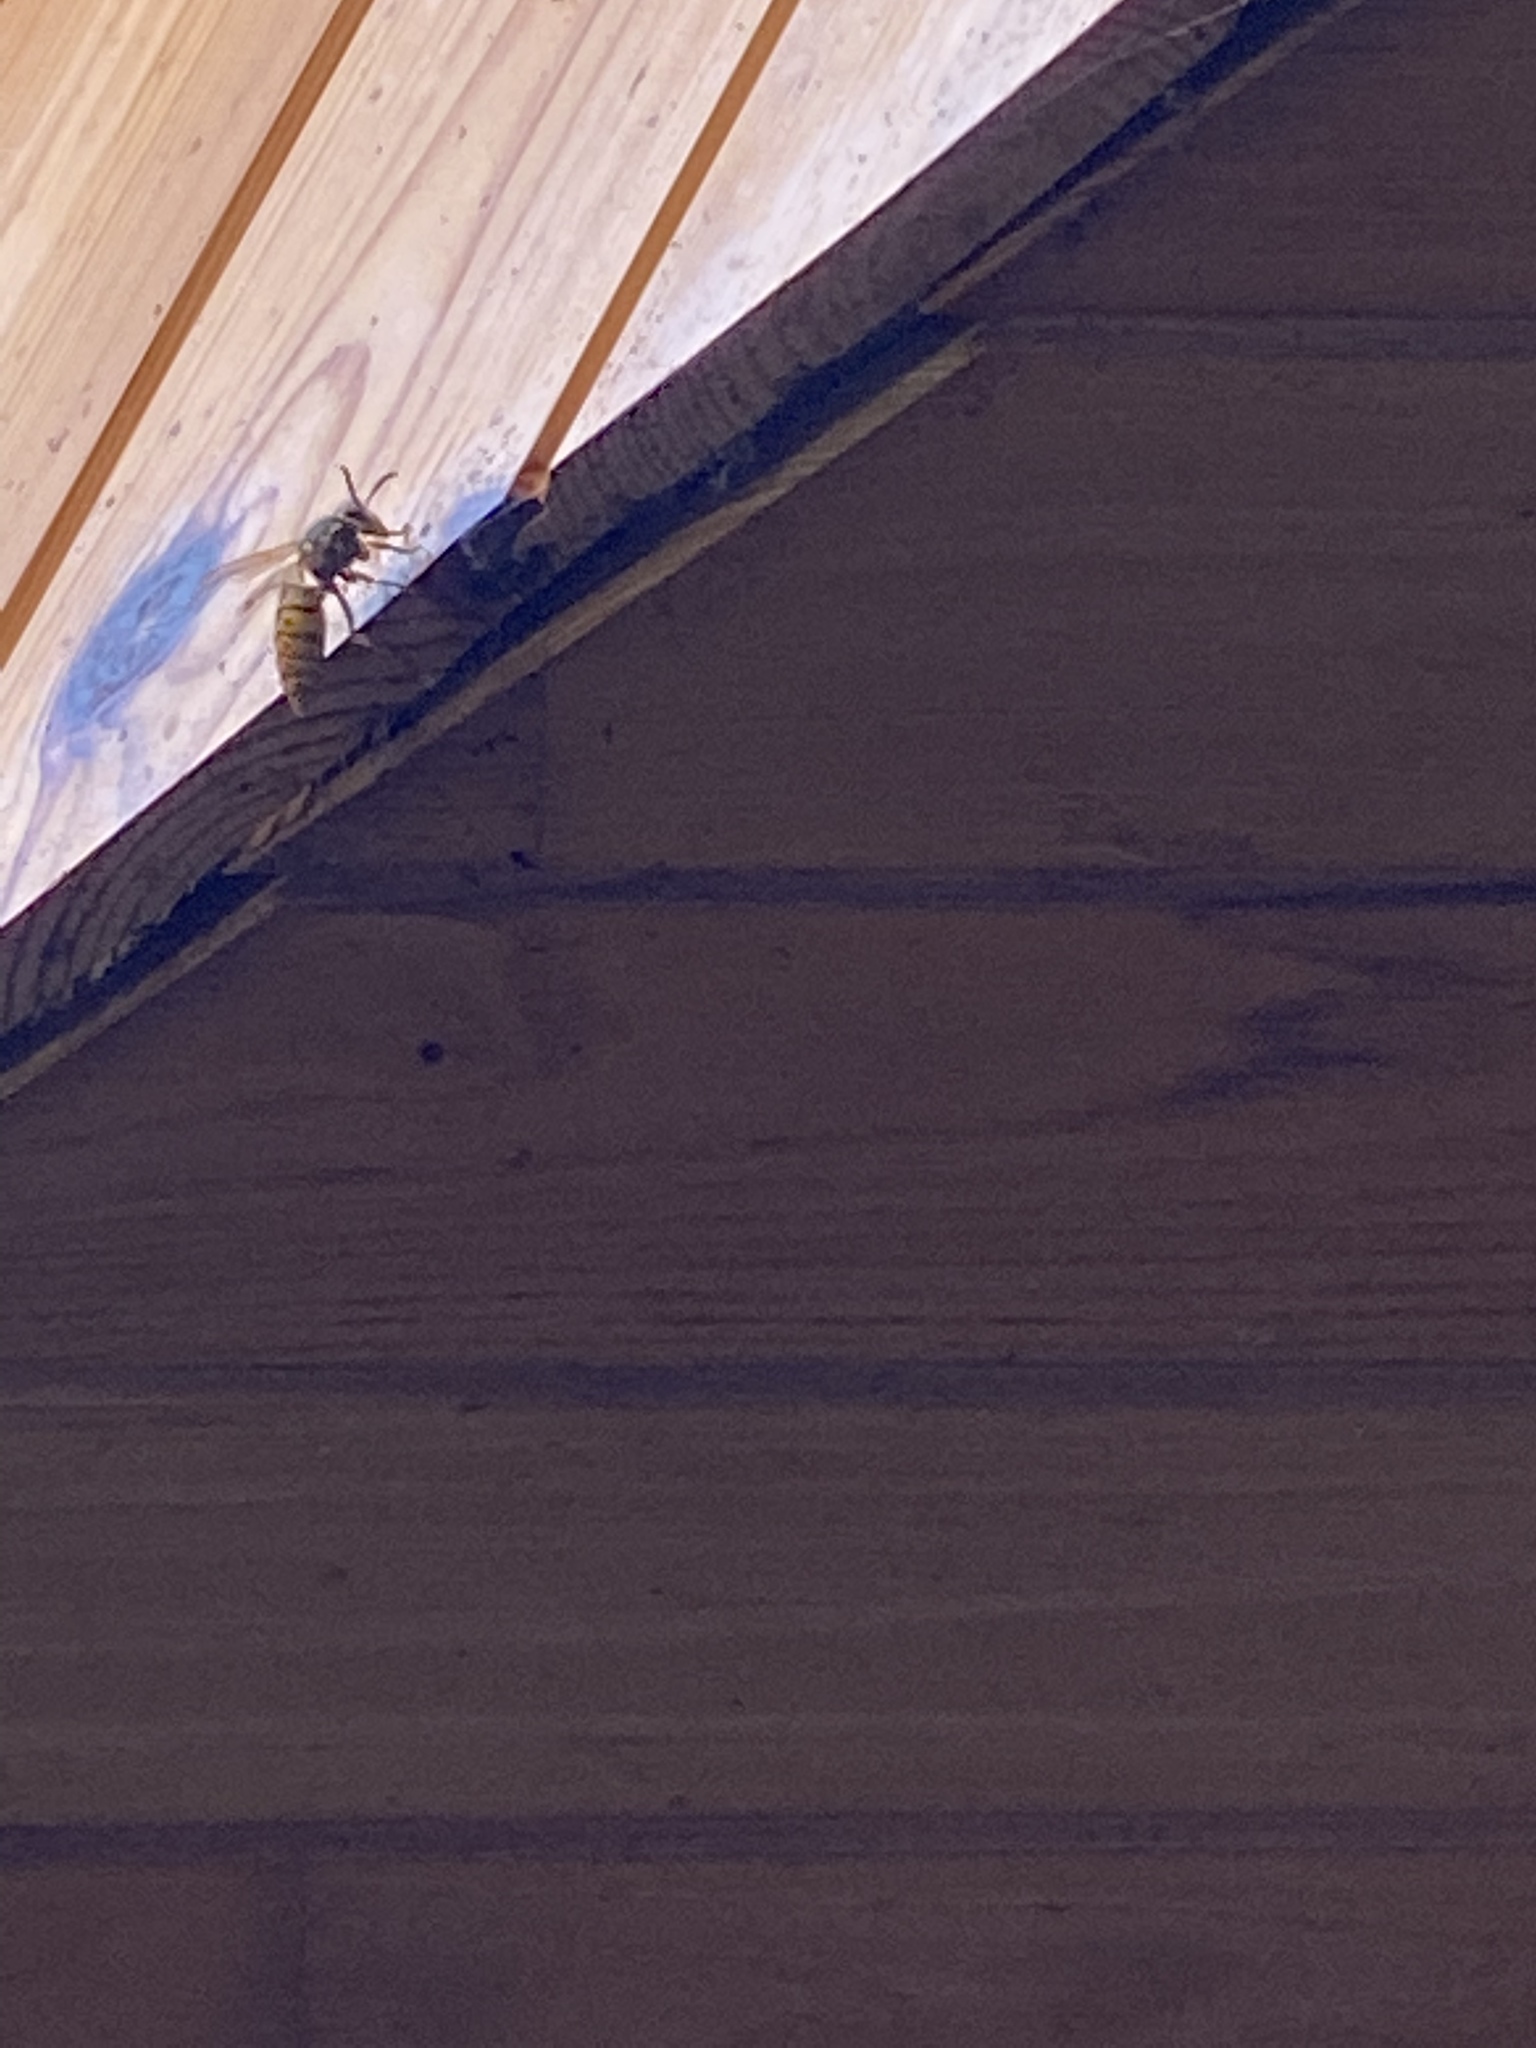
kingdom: Animalia
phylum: Arthropoda
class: Insecta
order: Hymenoptera
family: Vespidae
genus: Vespula
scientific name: Vespula germanica
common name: German wasp
